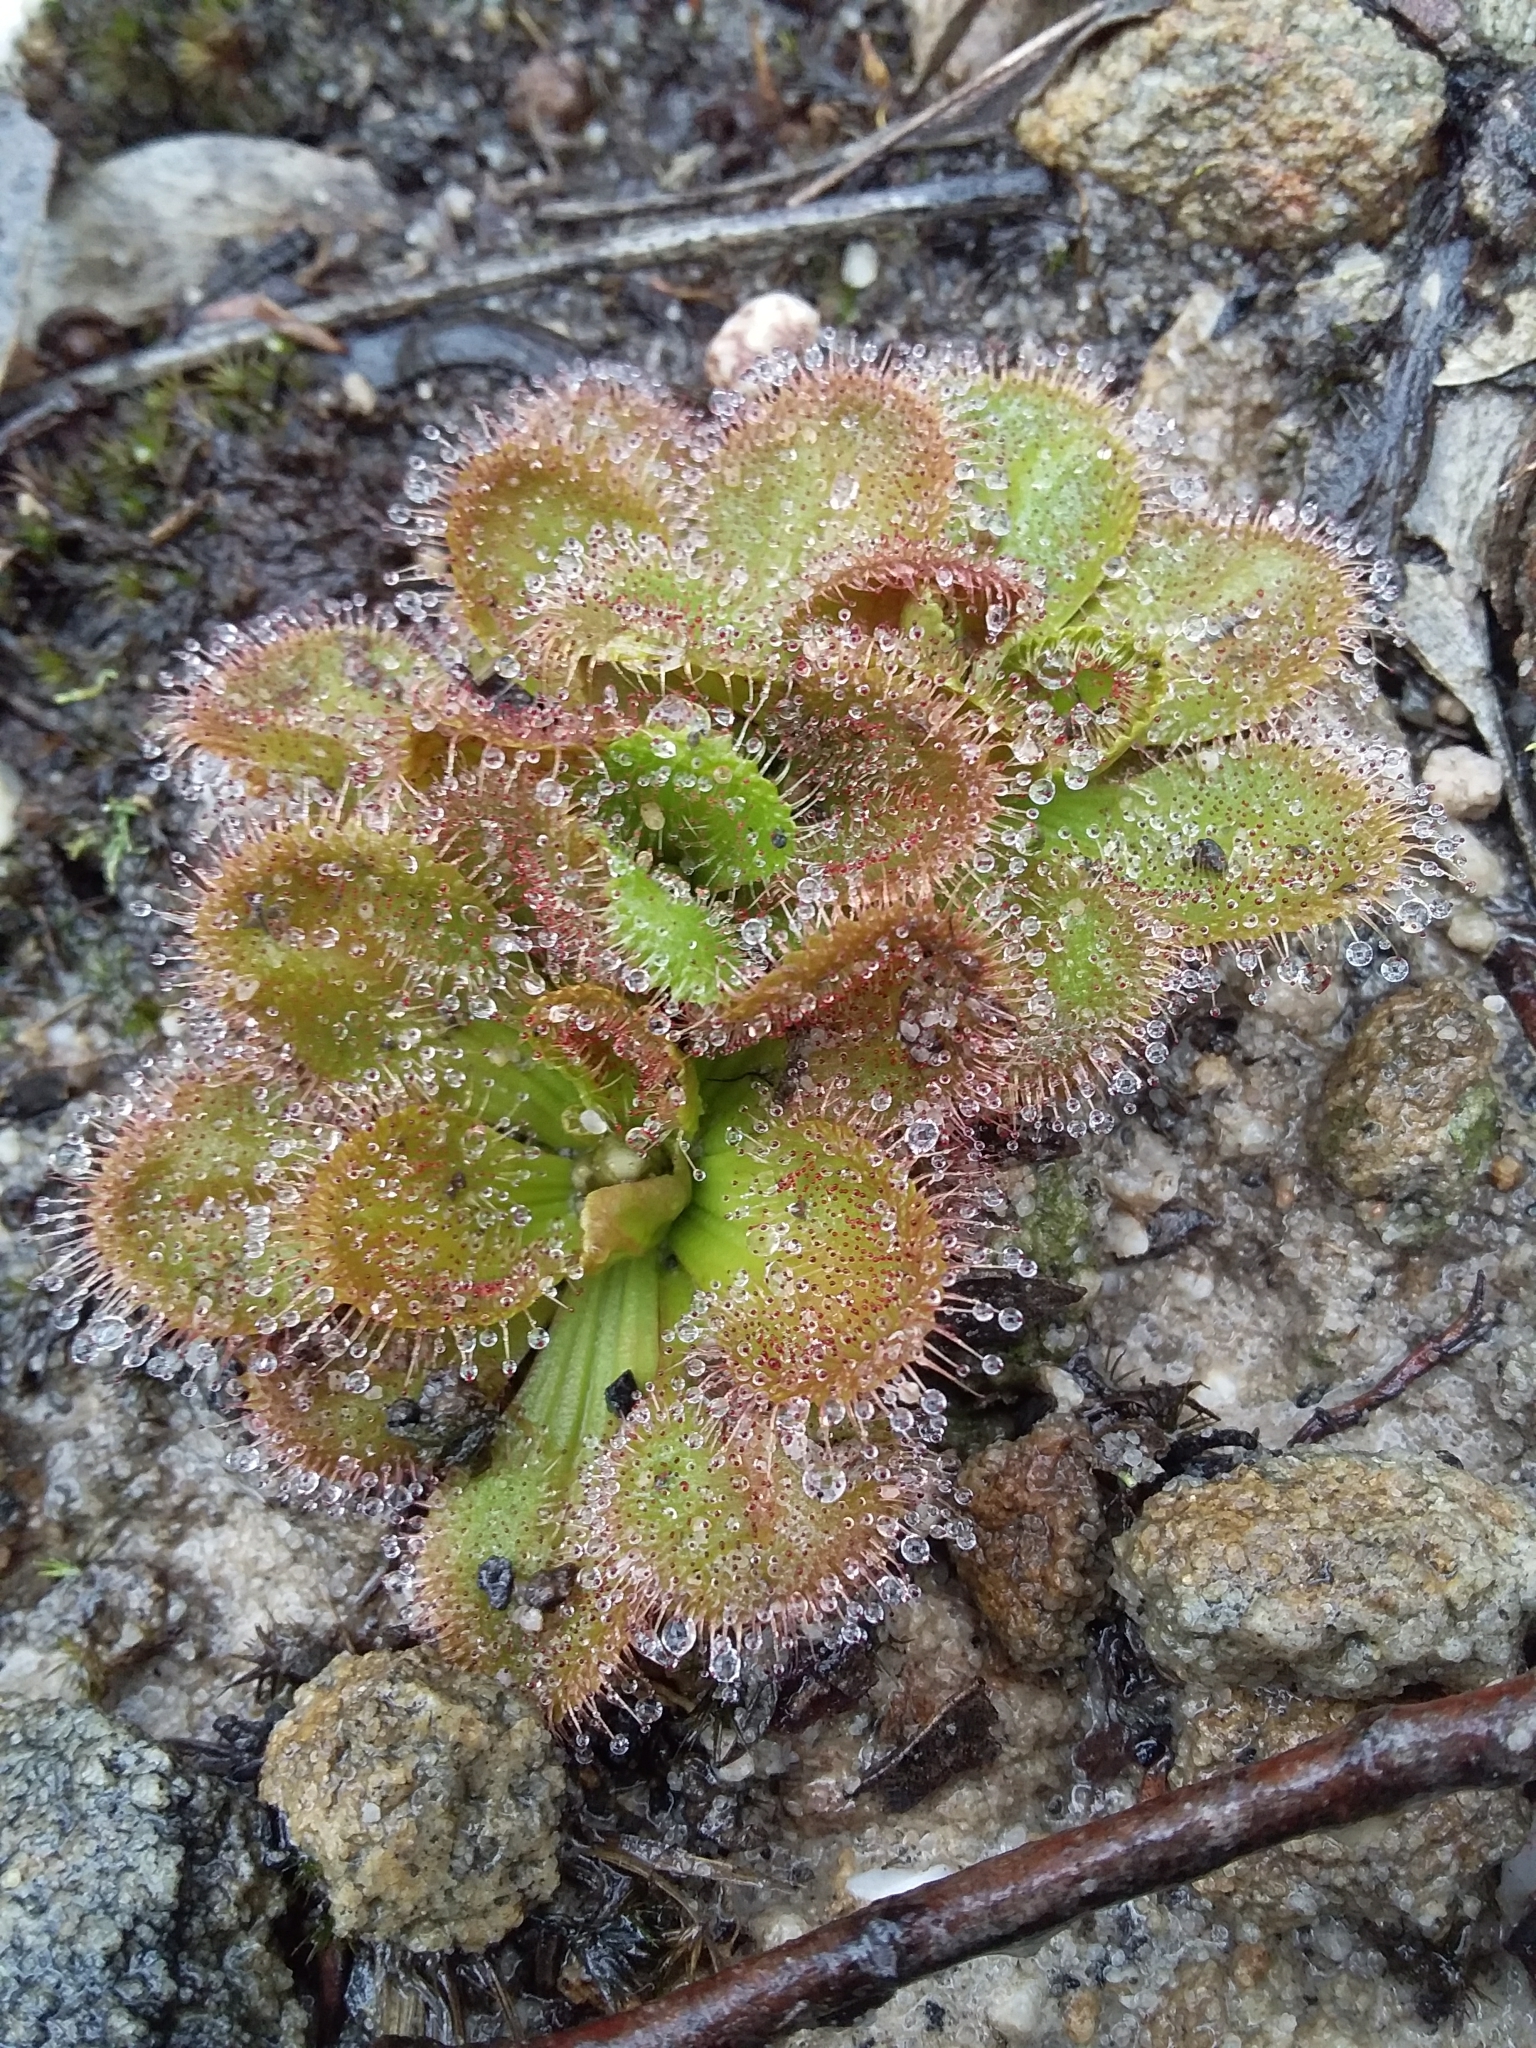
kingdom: Plantae
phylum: Tracheophyta
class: Magnoliopsida
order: Caryophyllales
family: Droseraceae
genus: Drosera
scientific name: Drosera whittakeri
